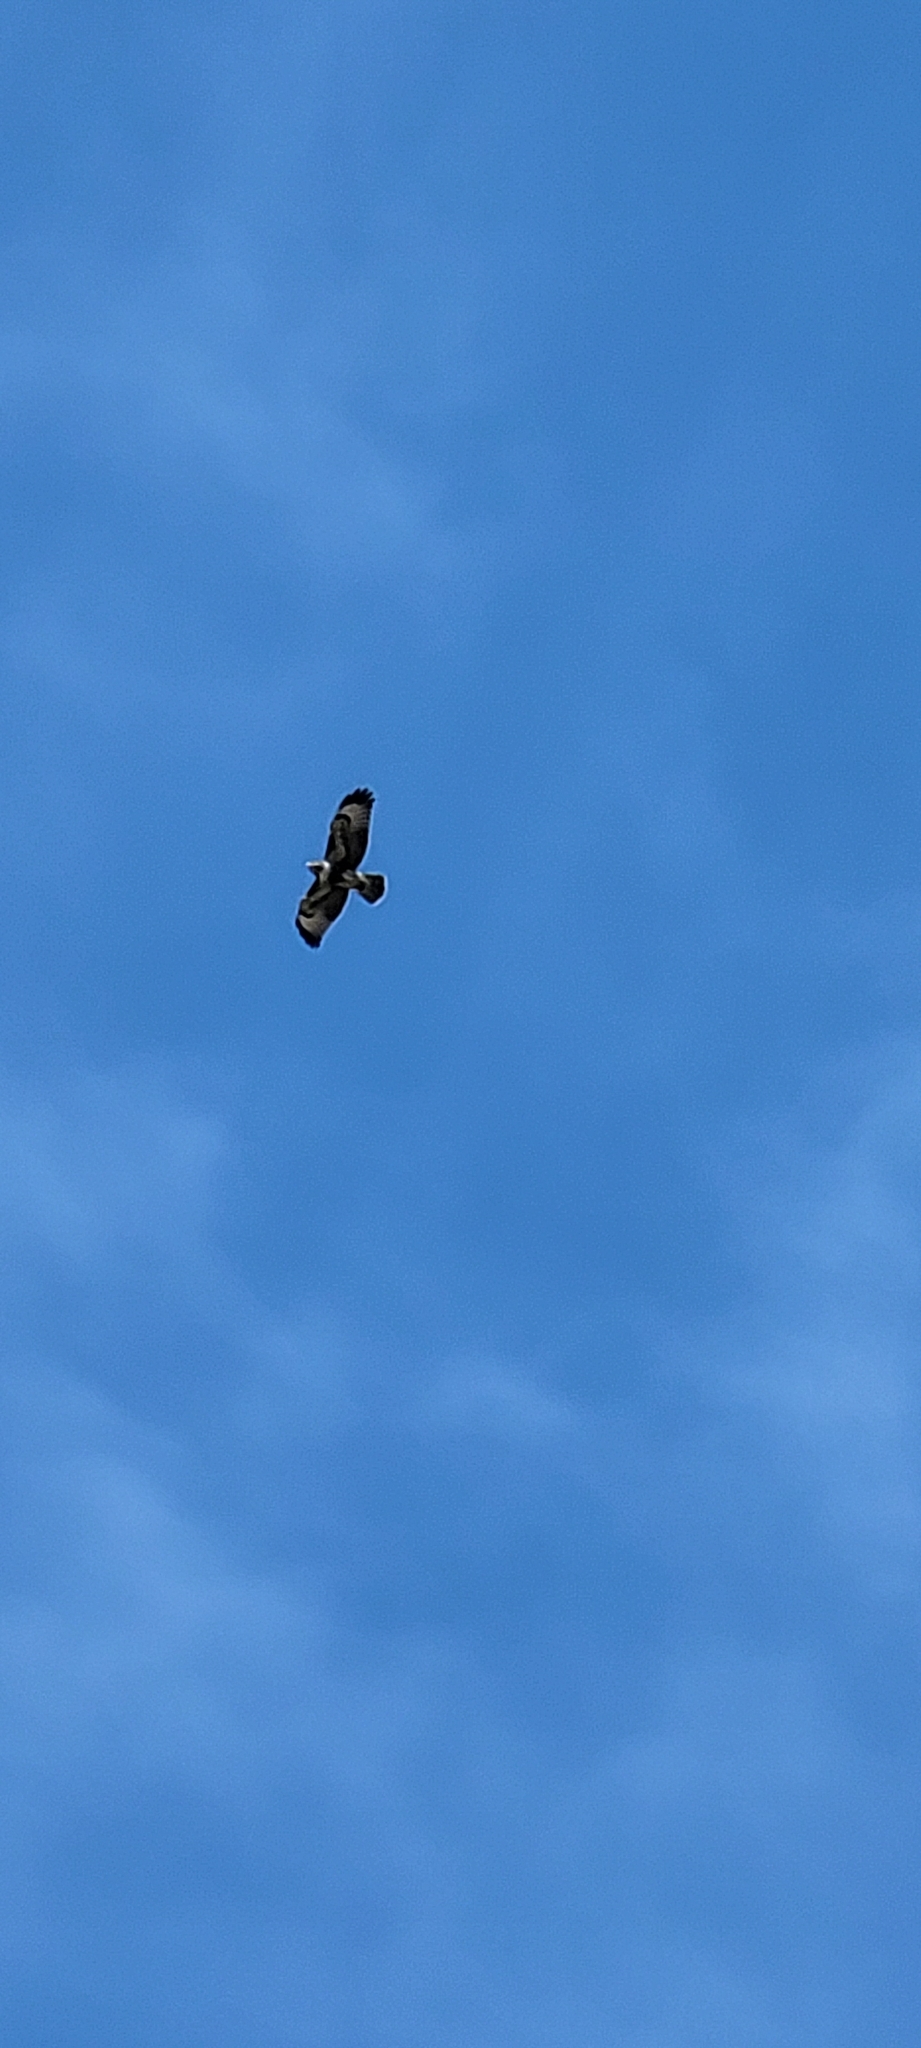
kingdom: Animalia
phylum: Chordata
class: Aves
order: Accipitriformes
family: Accipitridae
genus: Buteo
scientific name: Buteo jamaicensis
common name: Red-tailed hawk
